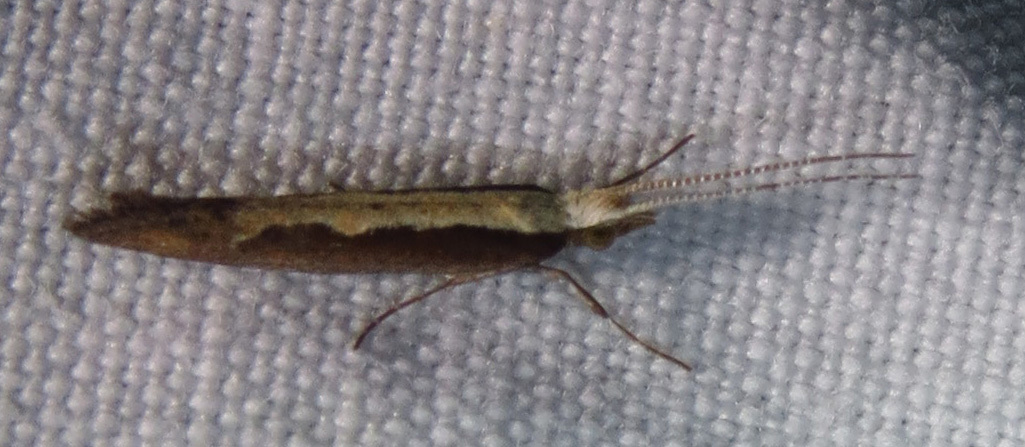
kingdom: Animalia
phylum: Arthropoda
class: Insecta
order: Lepidoptera
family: Plutellidae
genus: Plutella
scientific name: Plutella xylostella
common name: Diamond-back moth
